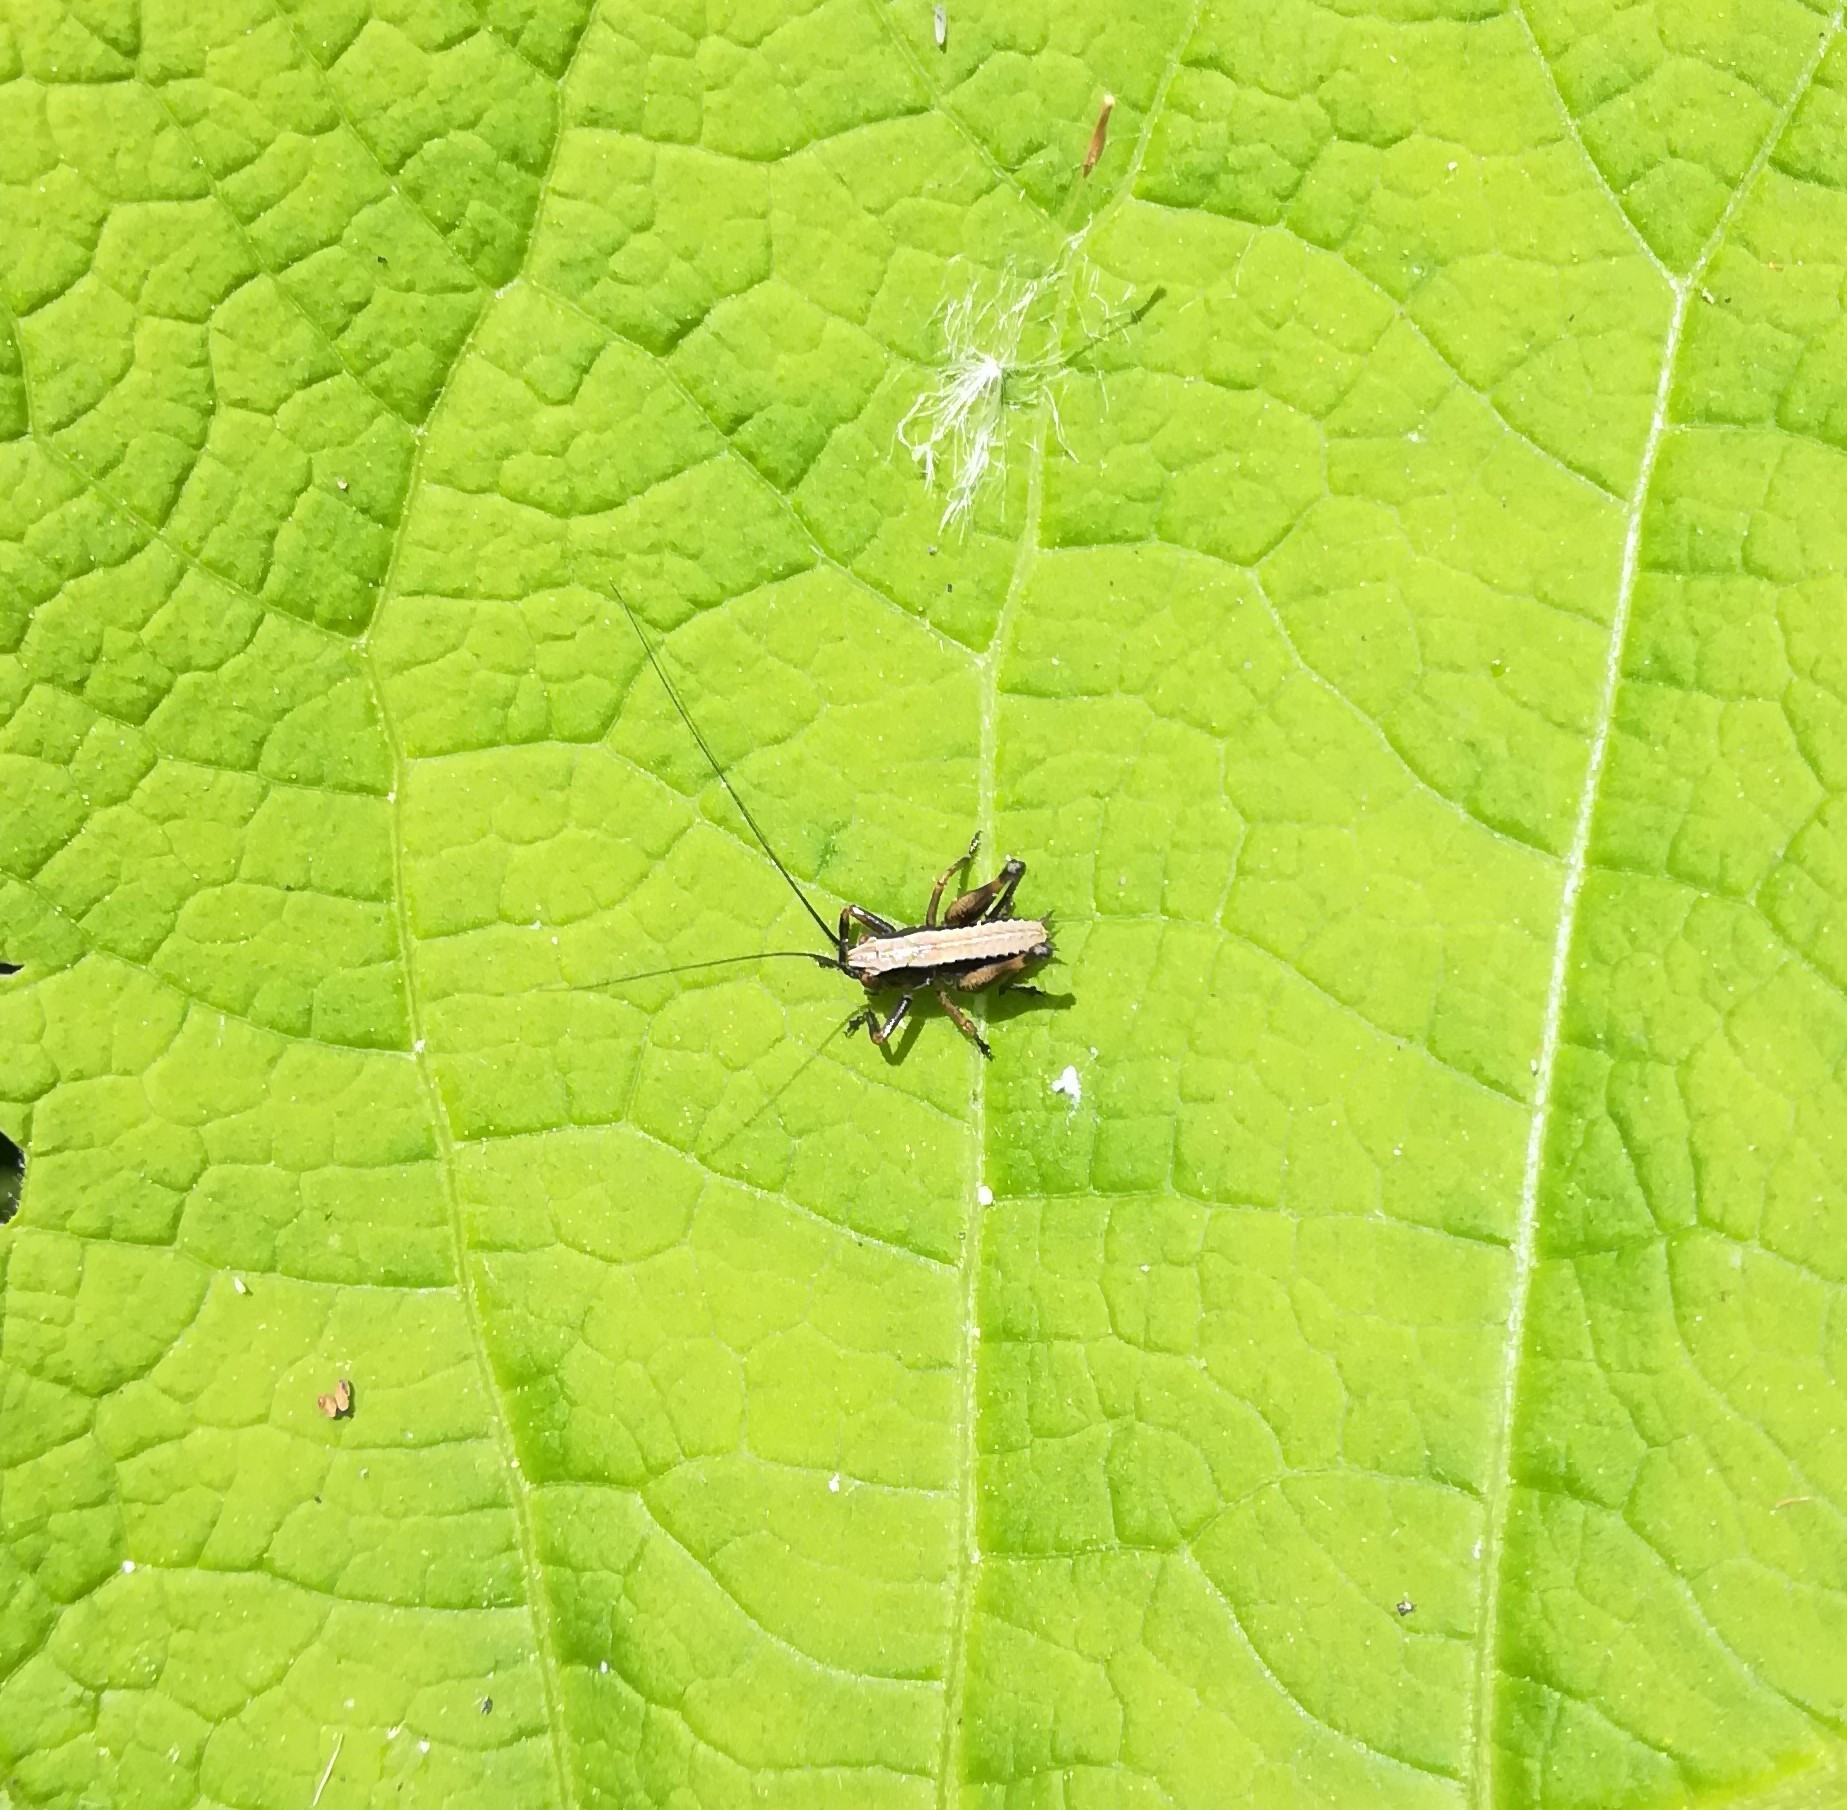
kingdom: Animalia
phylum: Arthropoda
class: Insecta
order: Orthoptera
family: Tettigoniidae
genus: Pholidoptera
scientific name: Pholidoptera griseoaptera
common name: Dark bush-cricket
